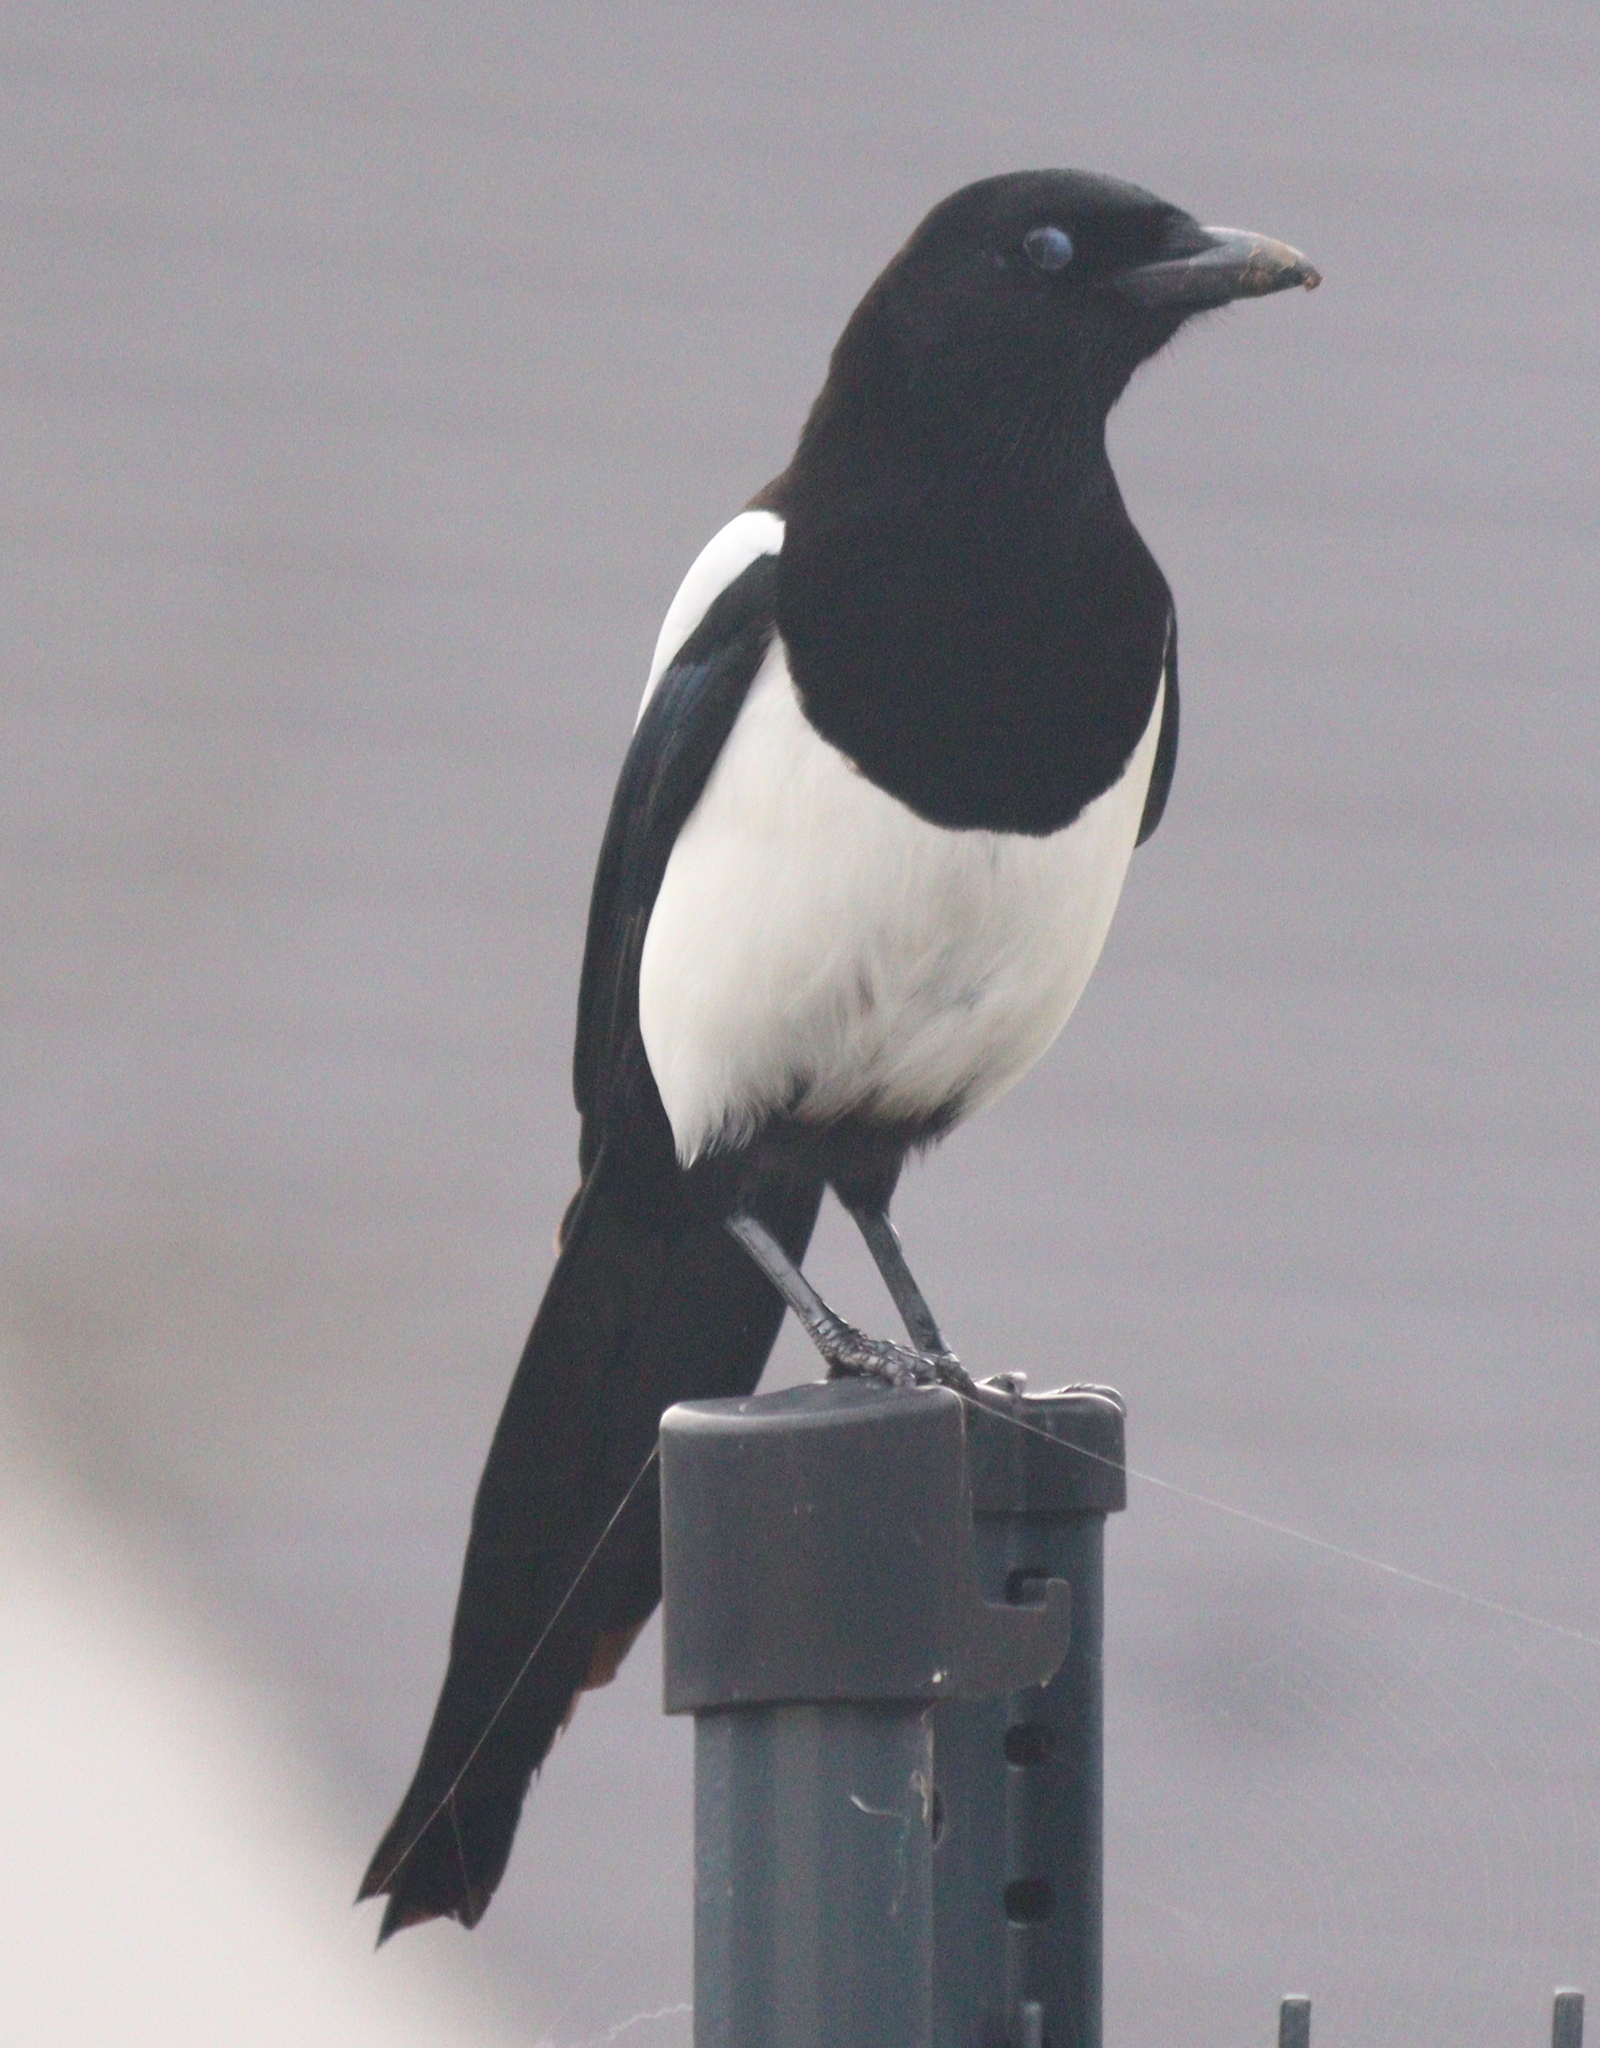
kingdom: Animalia
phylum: Chordata
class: Aves
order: Passeriformes
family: Corvidae
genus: Pica
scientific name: Pica pica
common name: Eurasian magpie
